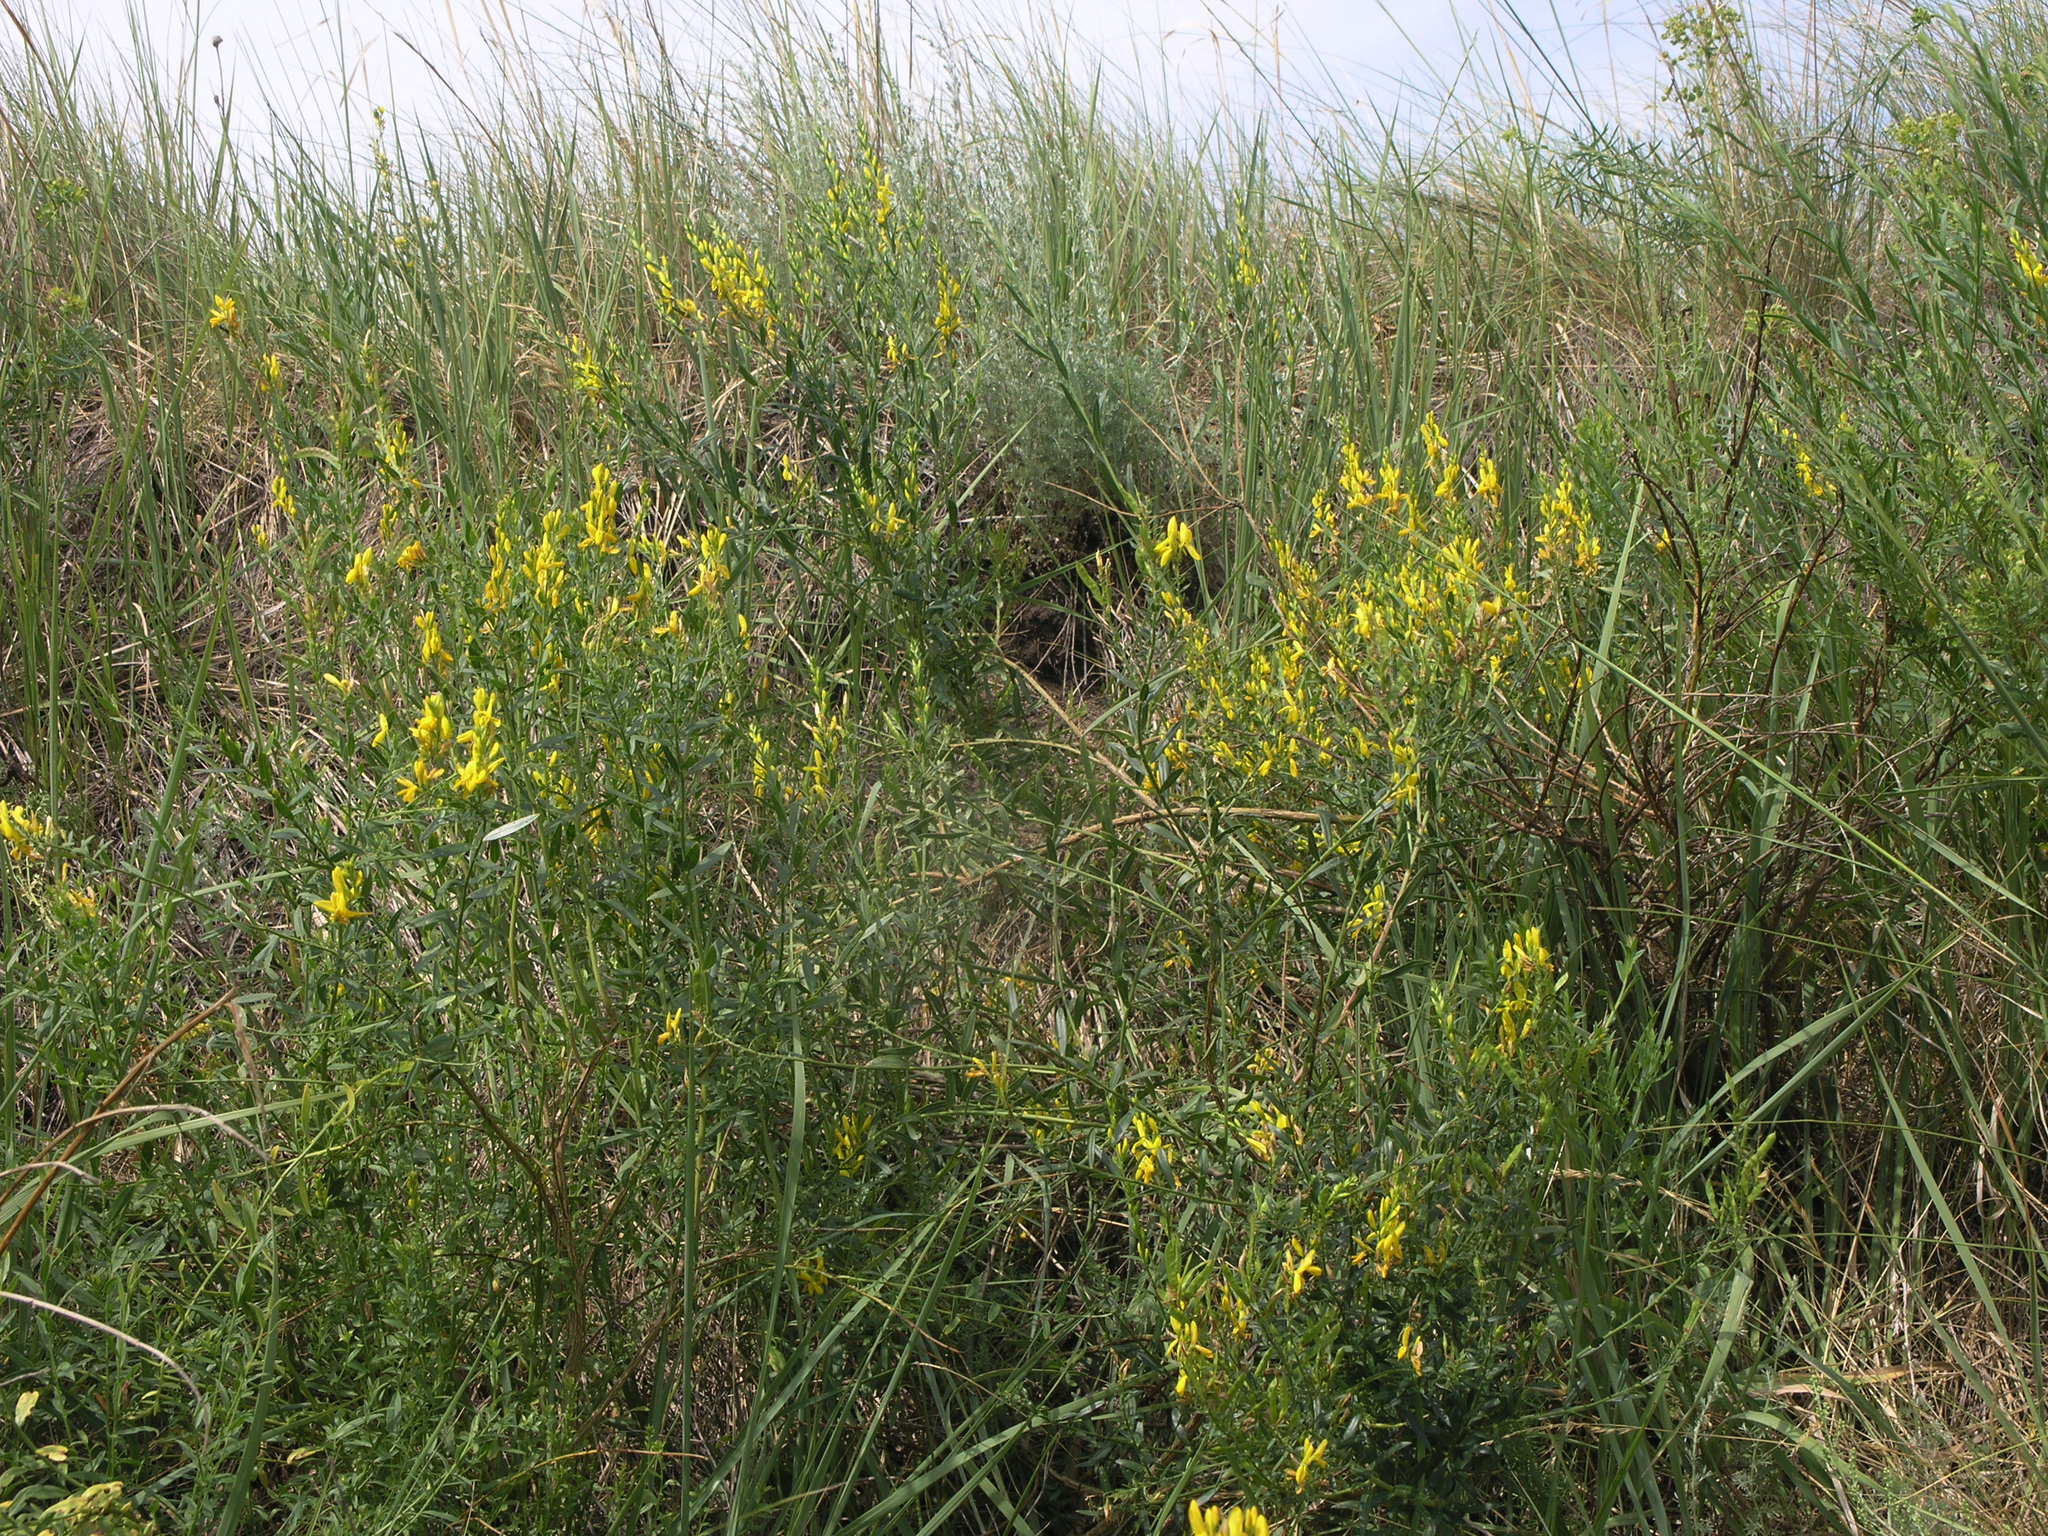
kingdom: Plantae
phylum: Tracheophyta
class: Magnoliopsida
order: Fabales
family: Fabaceae
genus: Genista
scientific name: Genista tinctoria
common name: Dyer's greenweed
